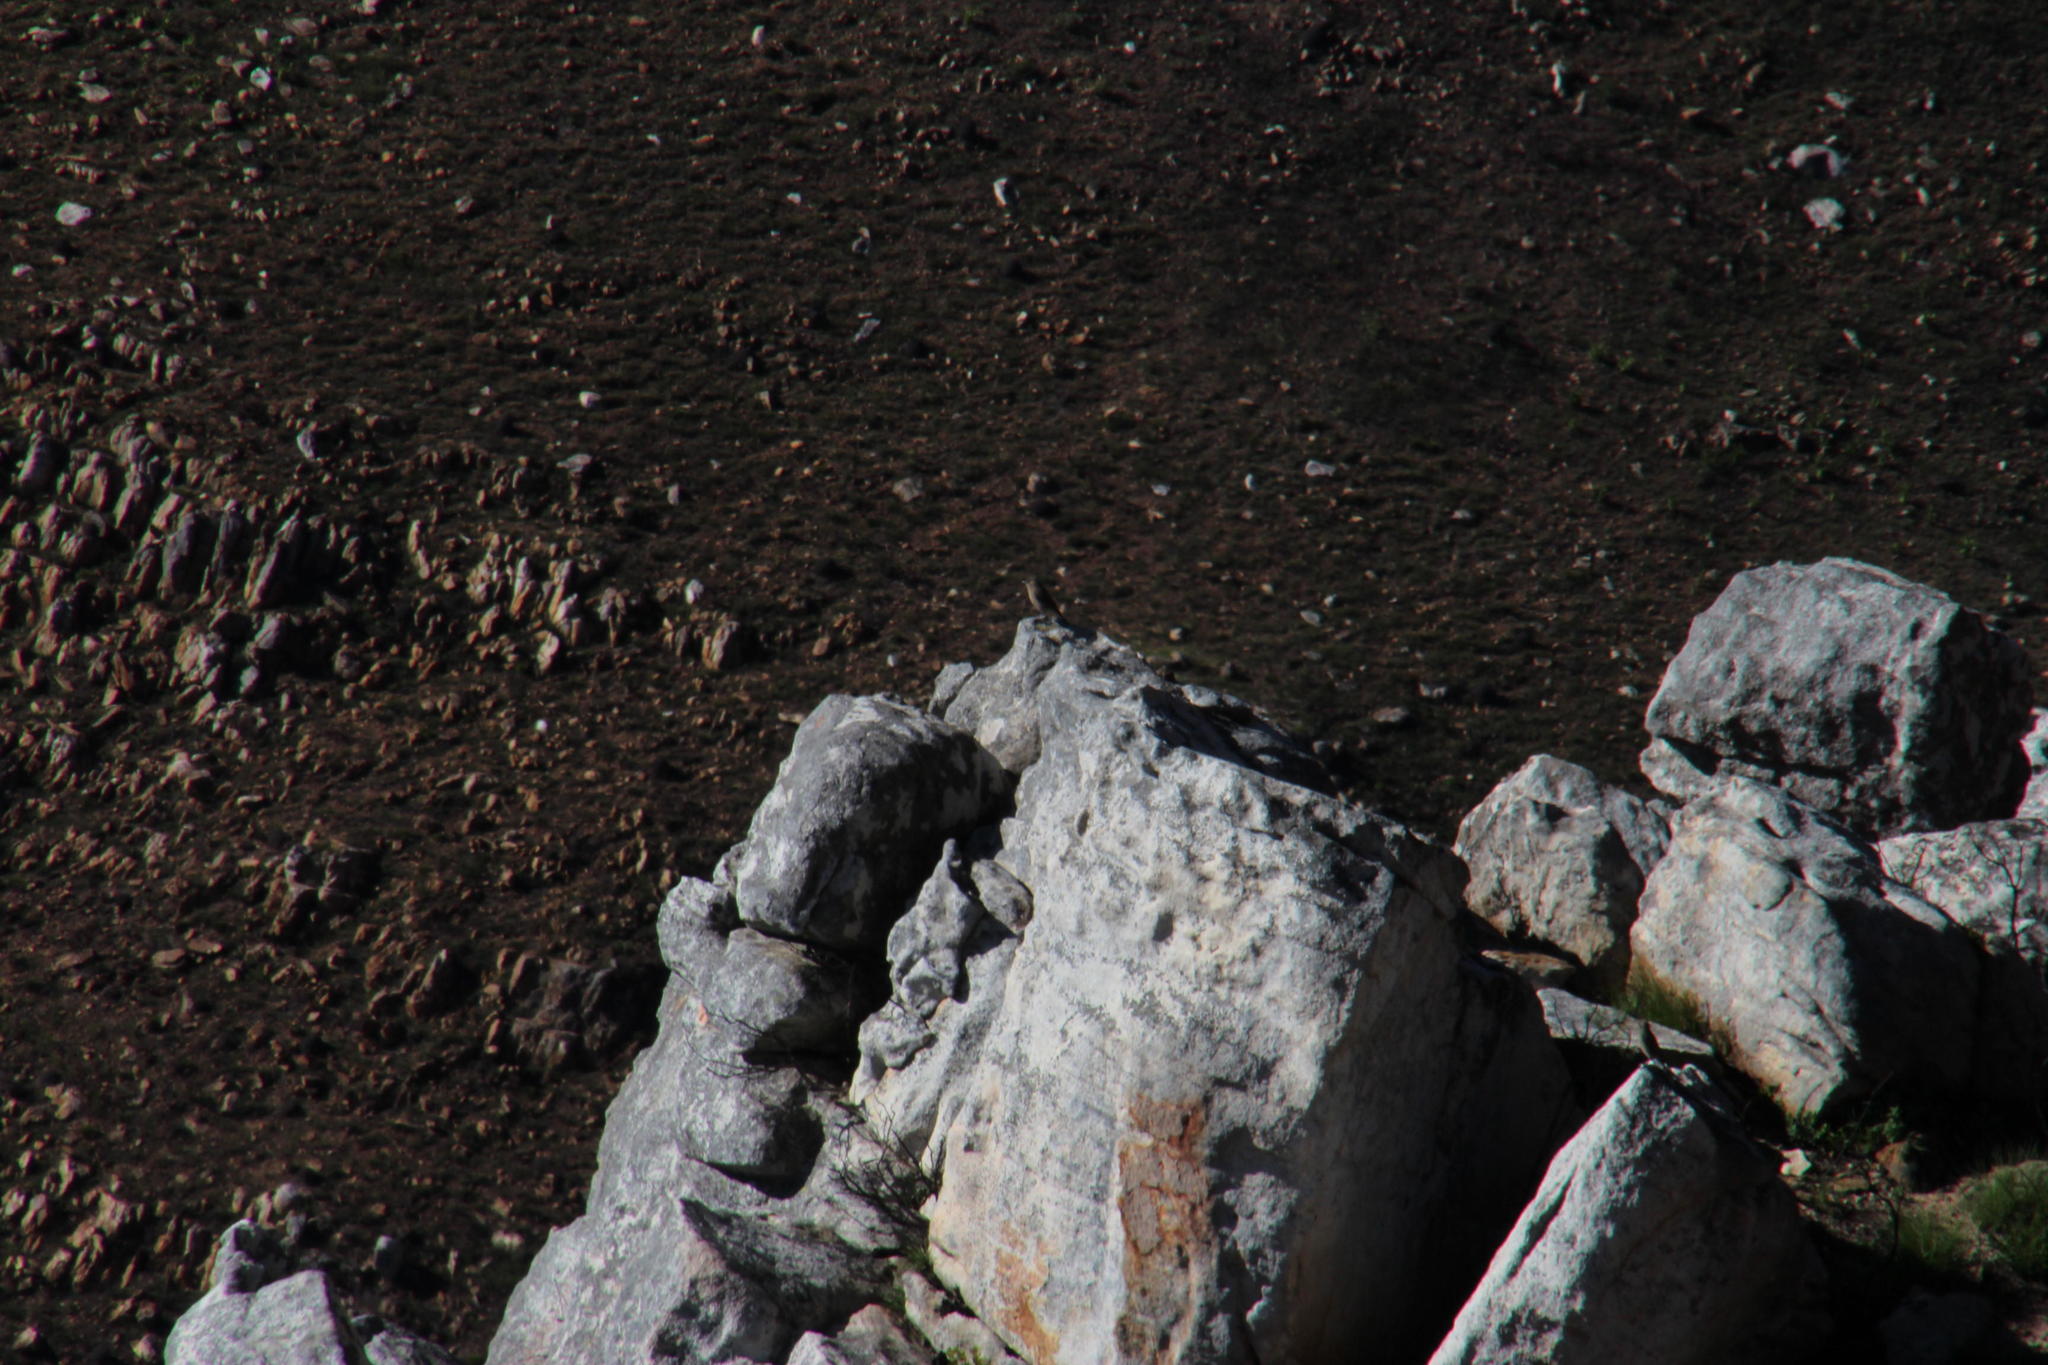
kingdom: Animalia
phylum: Chordata
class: Aves
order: Passeriformes
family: Muscicapidae
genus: Oenanthe
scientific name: Oenanthe familiaris
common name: Familiar chat
